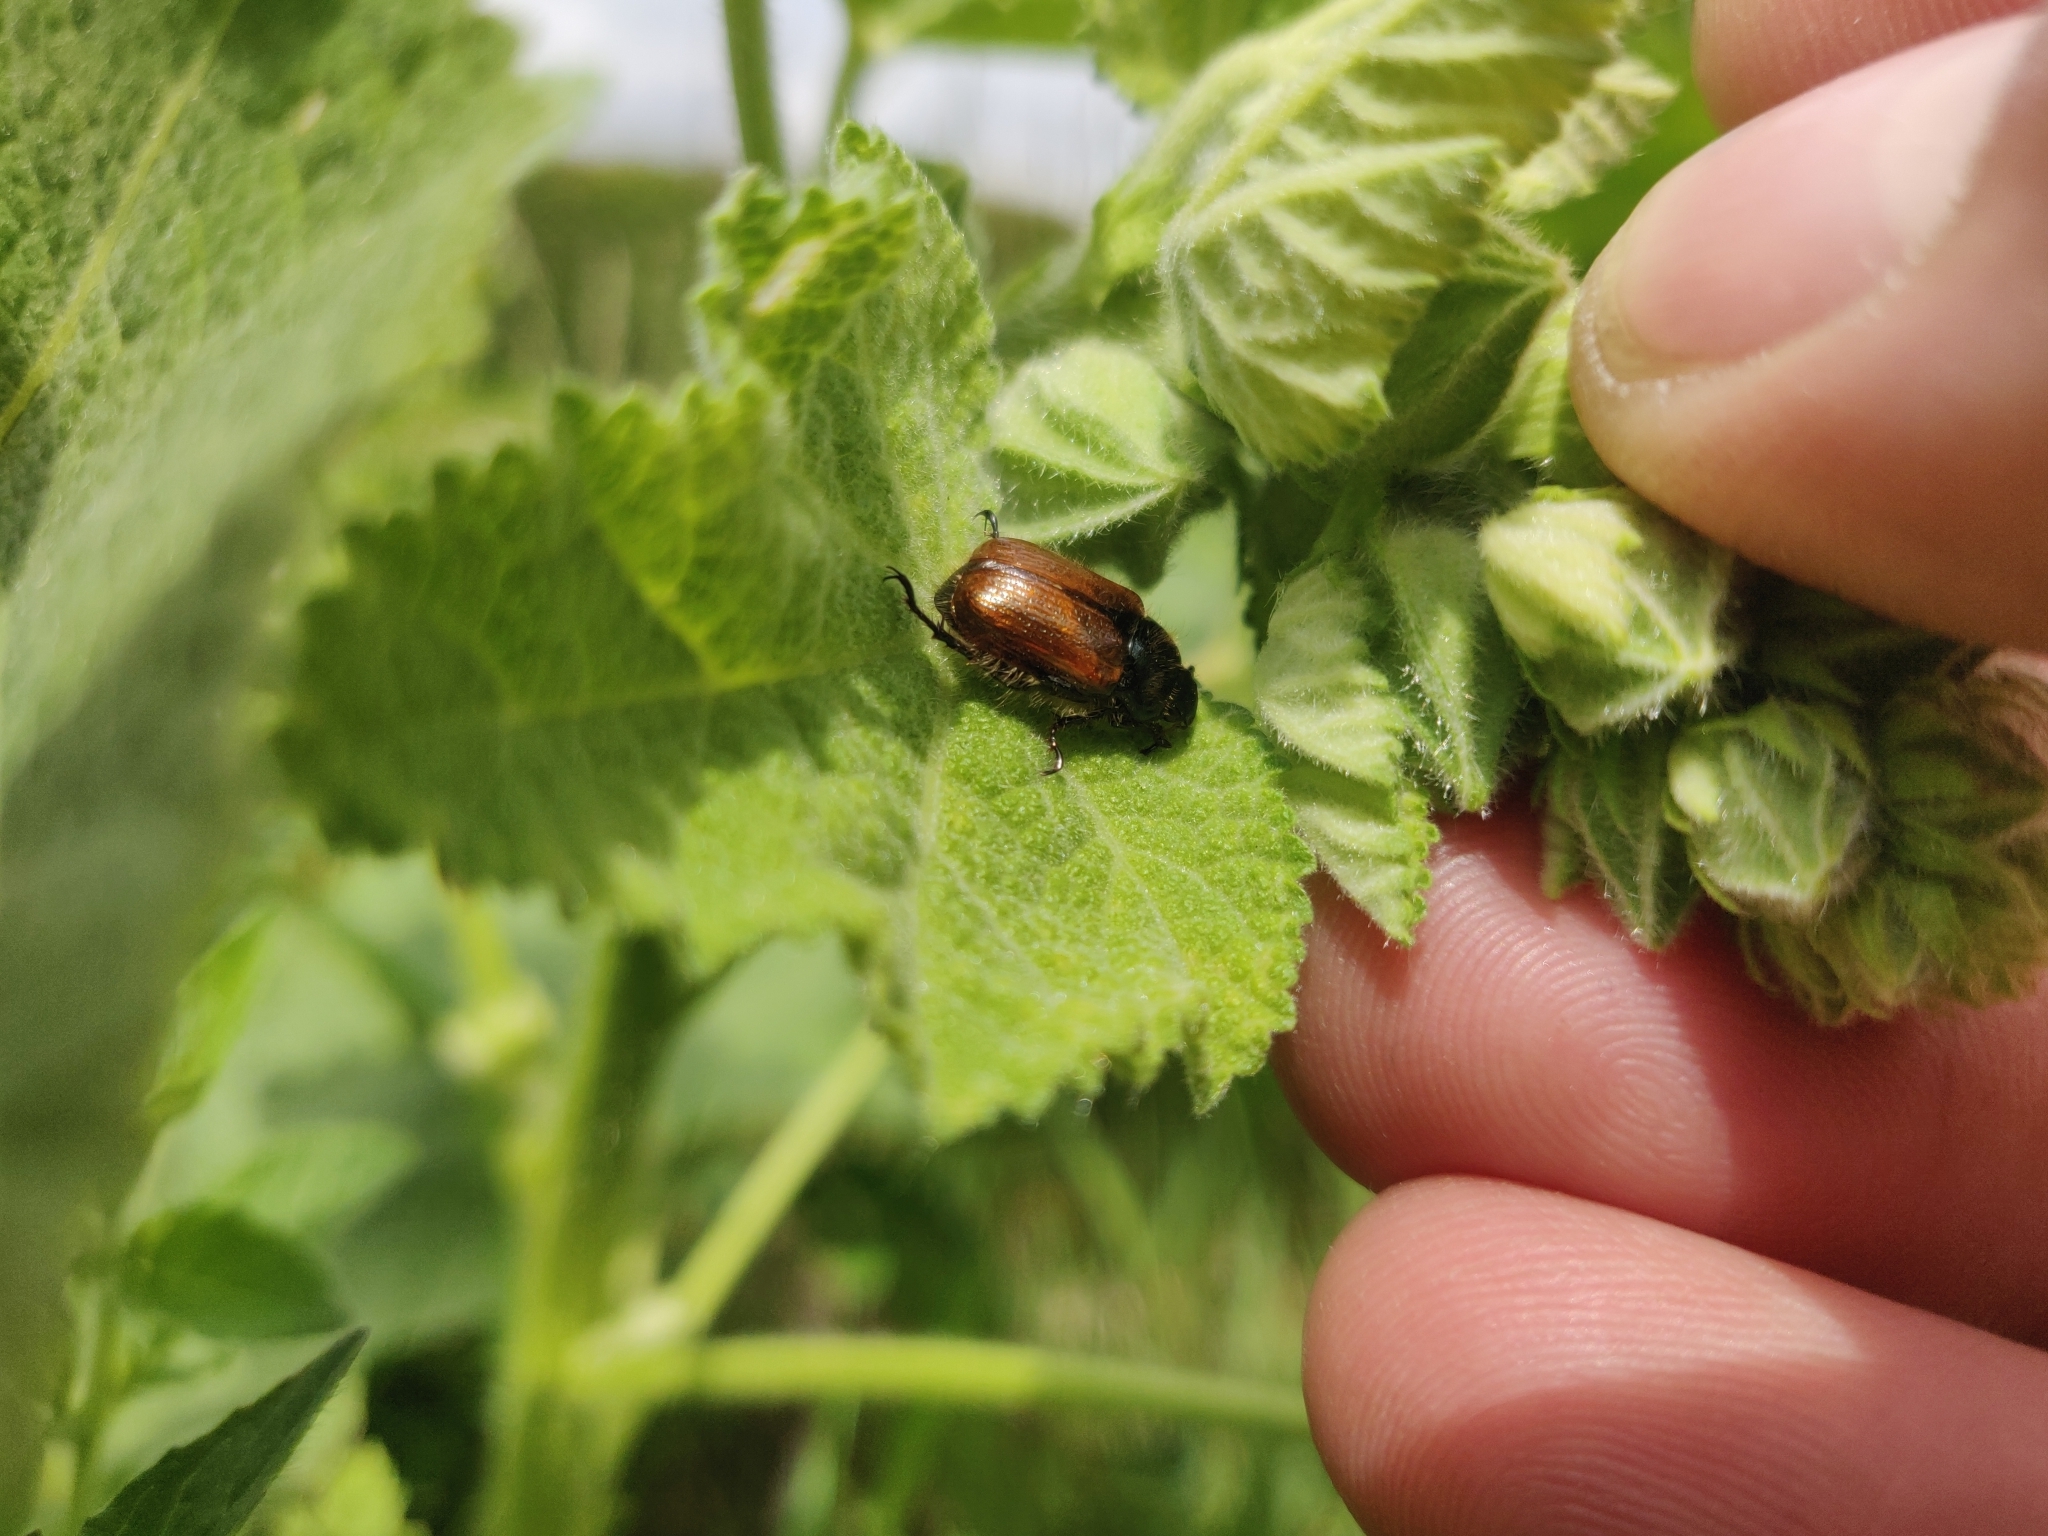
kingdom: Animalia
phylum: Arthropoda
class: Insecta
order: Coleoptera
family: Scarabaeidae
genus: Phyllopertha
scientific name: Phyllopertha horticola
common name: Garden chafer
